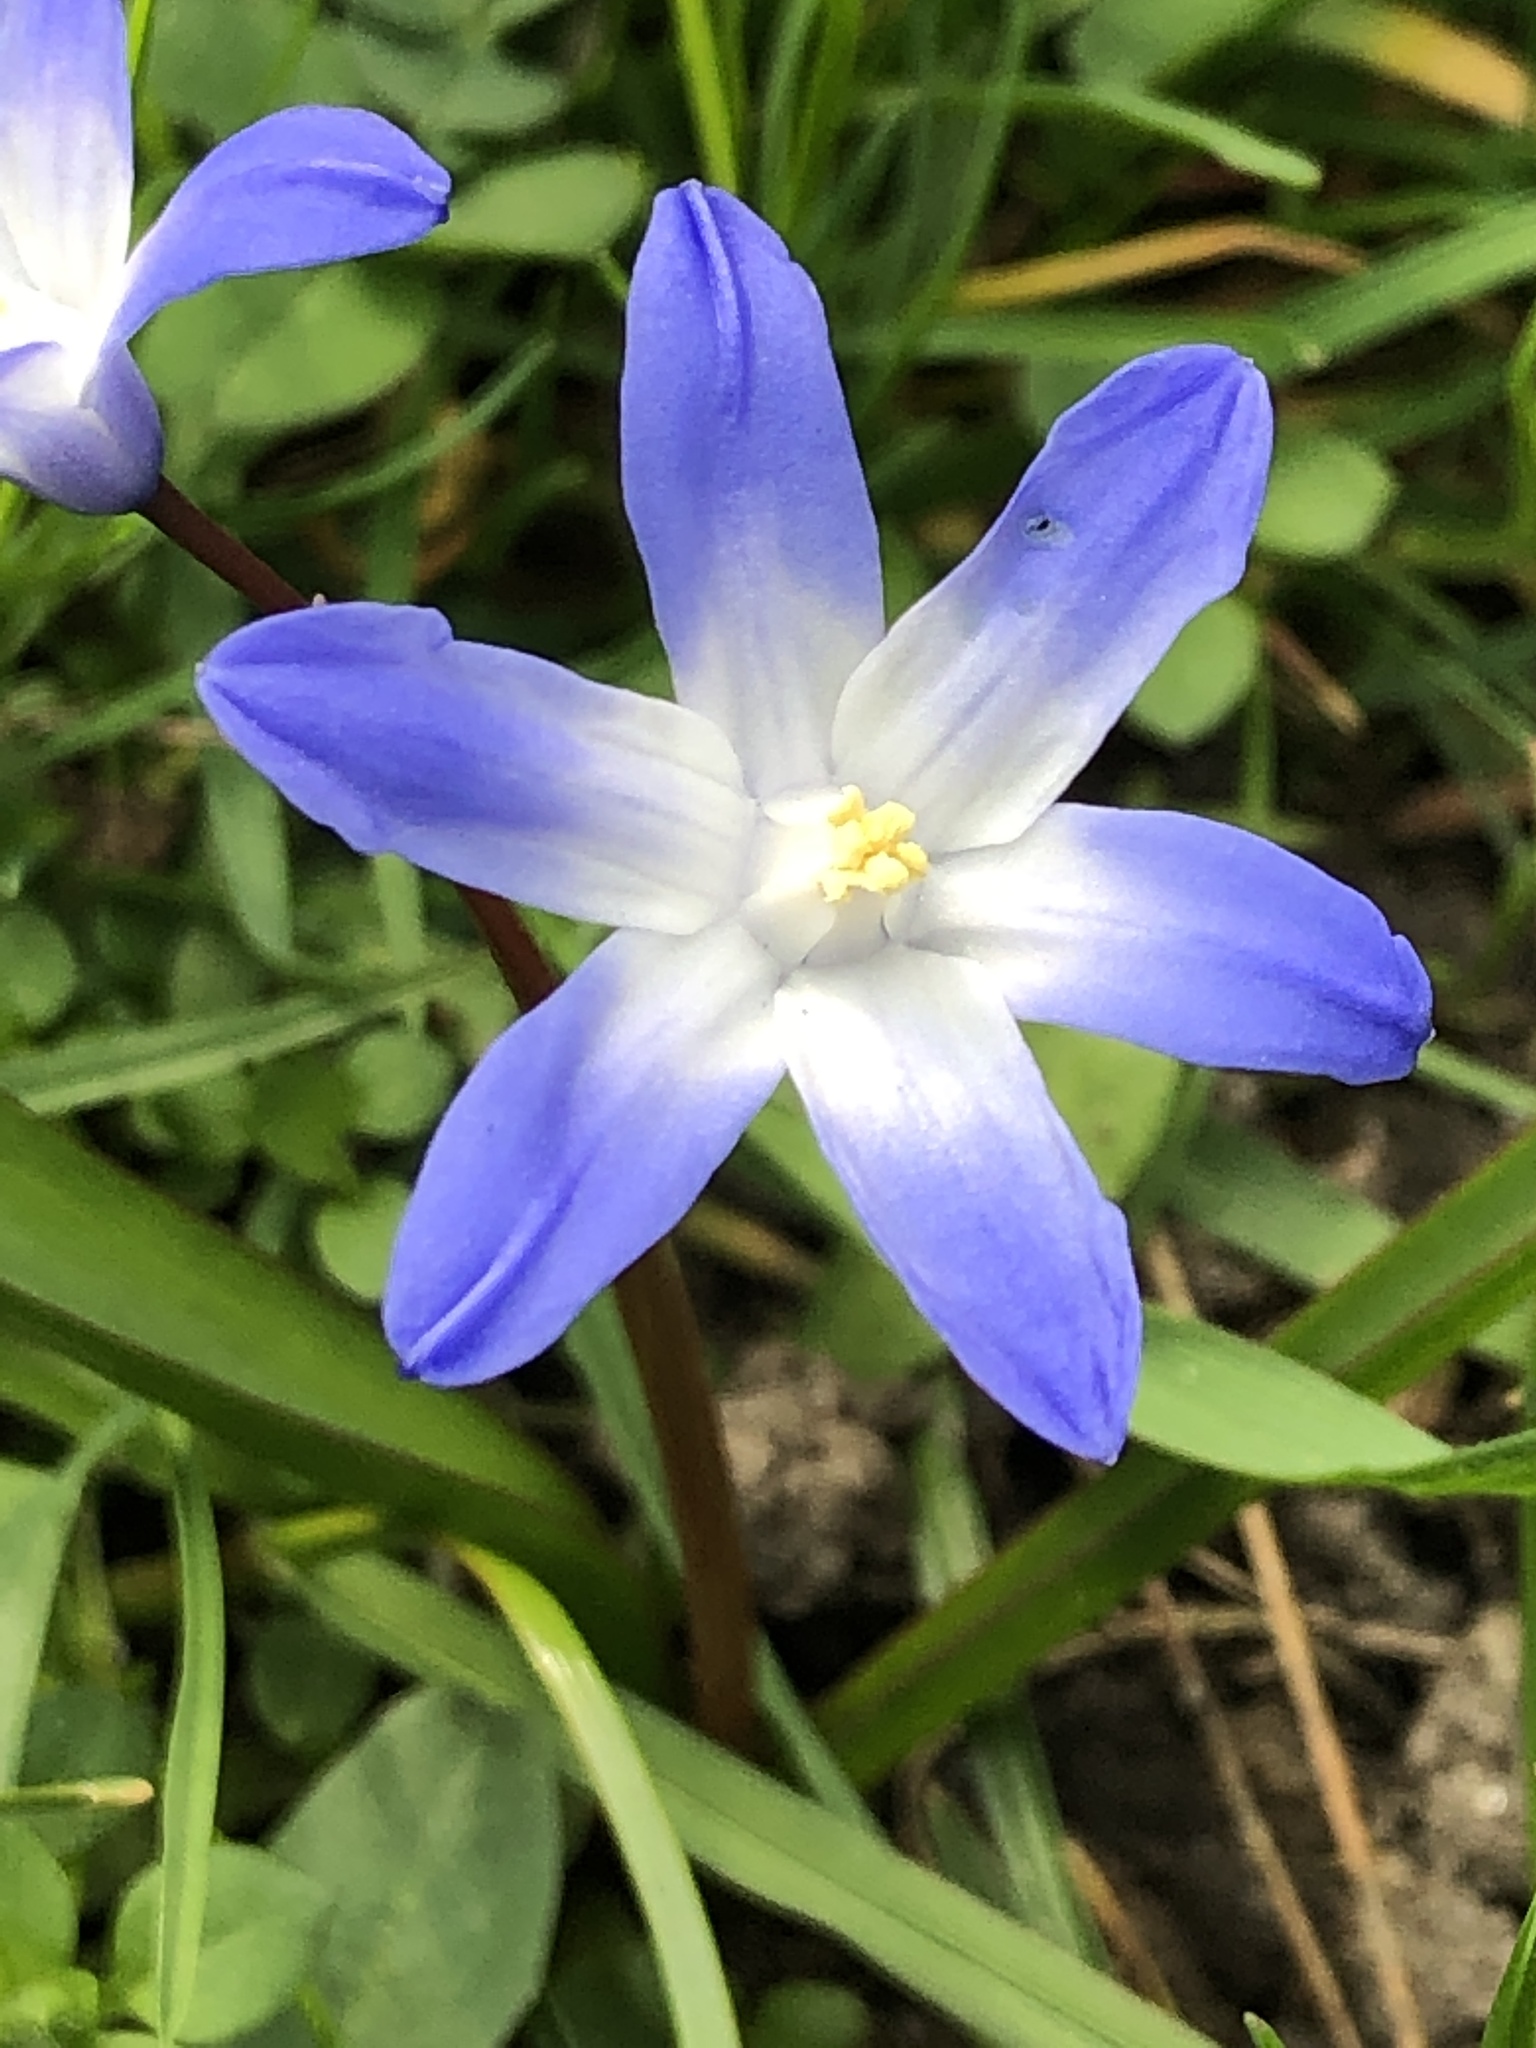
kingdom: Plantae
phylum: Tracheophyta
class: Liliopsida
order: Asparagales
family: Asparagaceae
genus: Scilla
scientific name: Scilla forbesii
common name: Glory-of-the-snow
